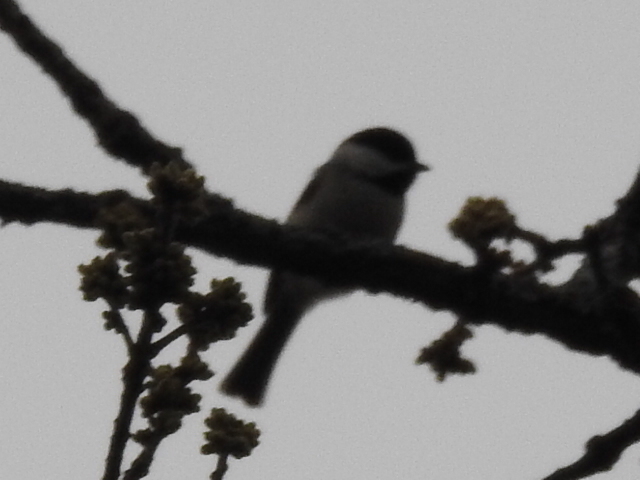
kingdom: Animalia
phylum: Chordata
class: Aves
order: Passeriformes
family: Paridae
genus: Poecile
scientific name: Poecile carolinensis
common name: Carolina chickadee
